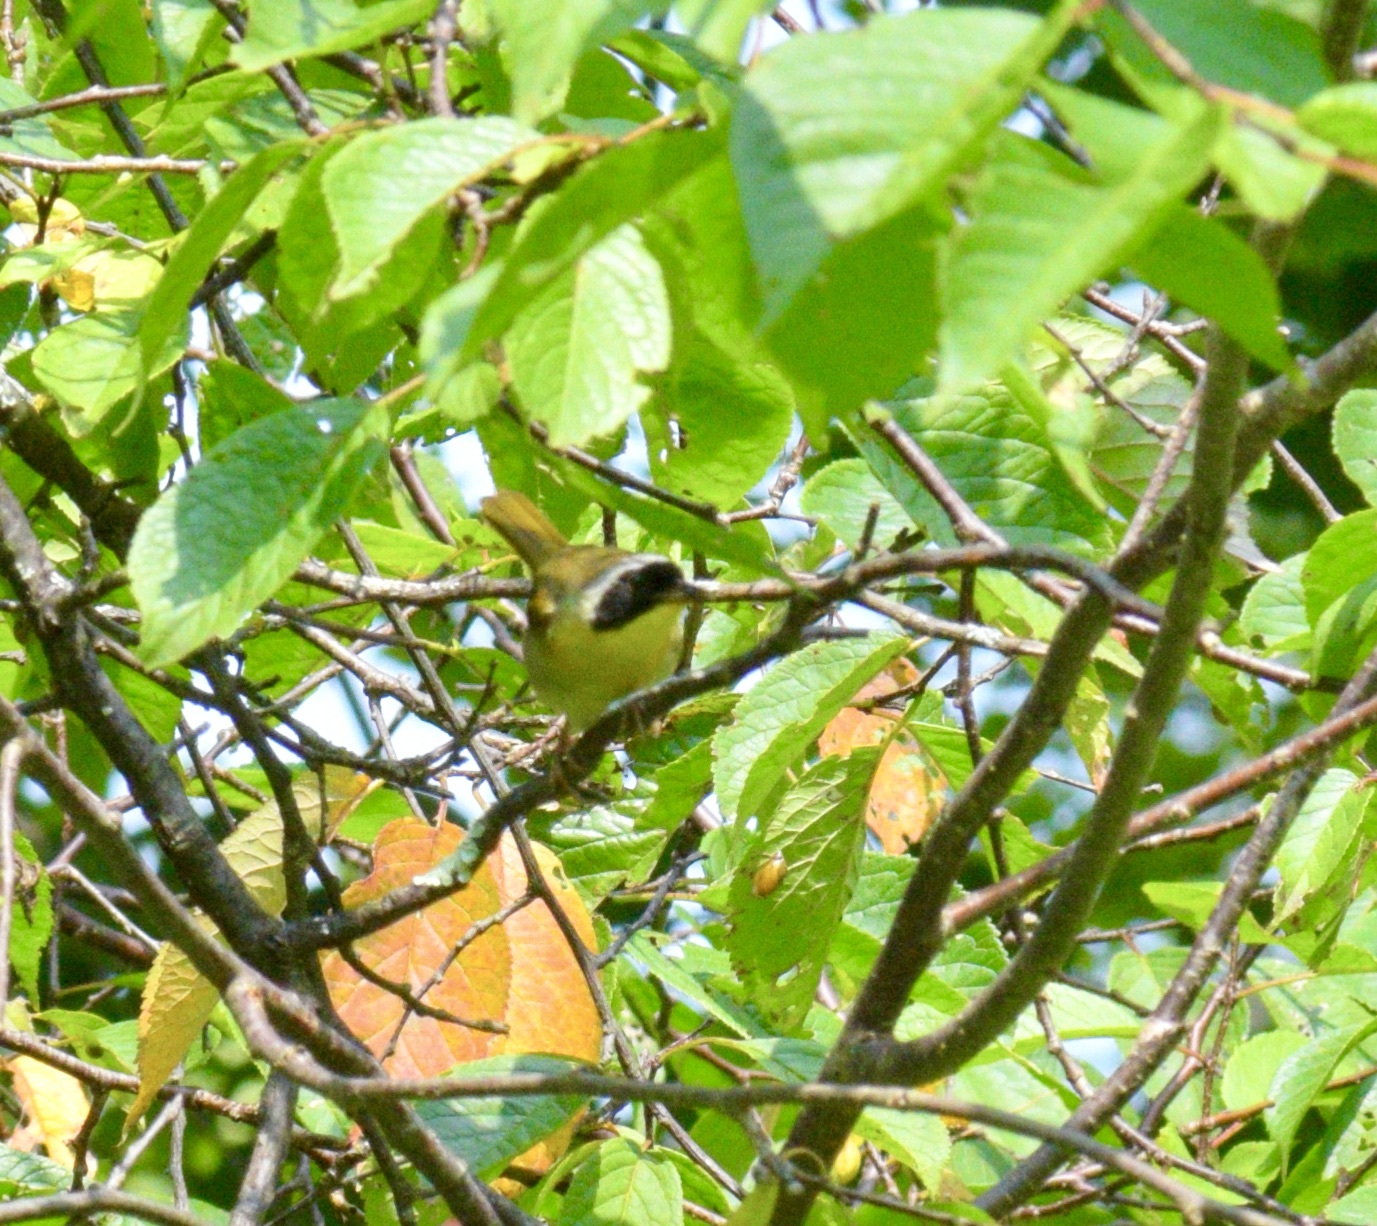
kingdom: Animalia
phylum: Chordata
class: Aves
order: Passeriformes
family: Parulidae
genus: Geothlypis
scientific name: Geothlypis trichas
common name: Common yellowthroat
